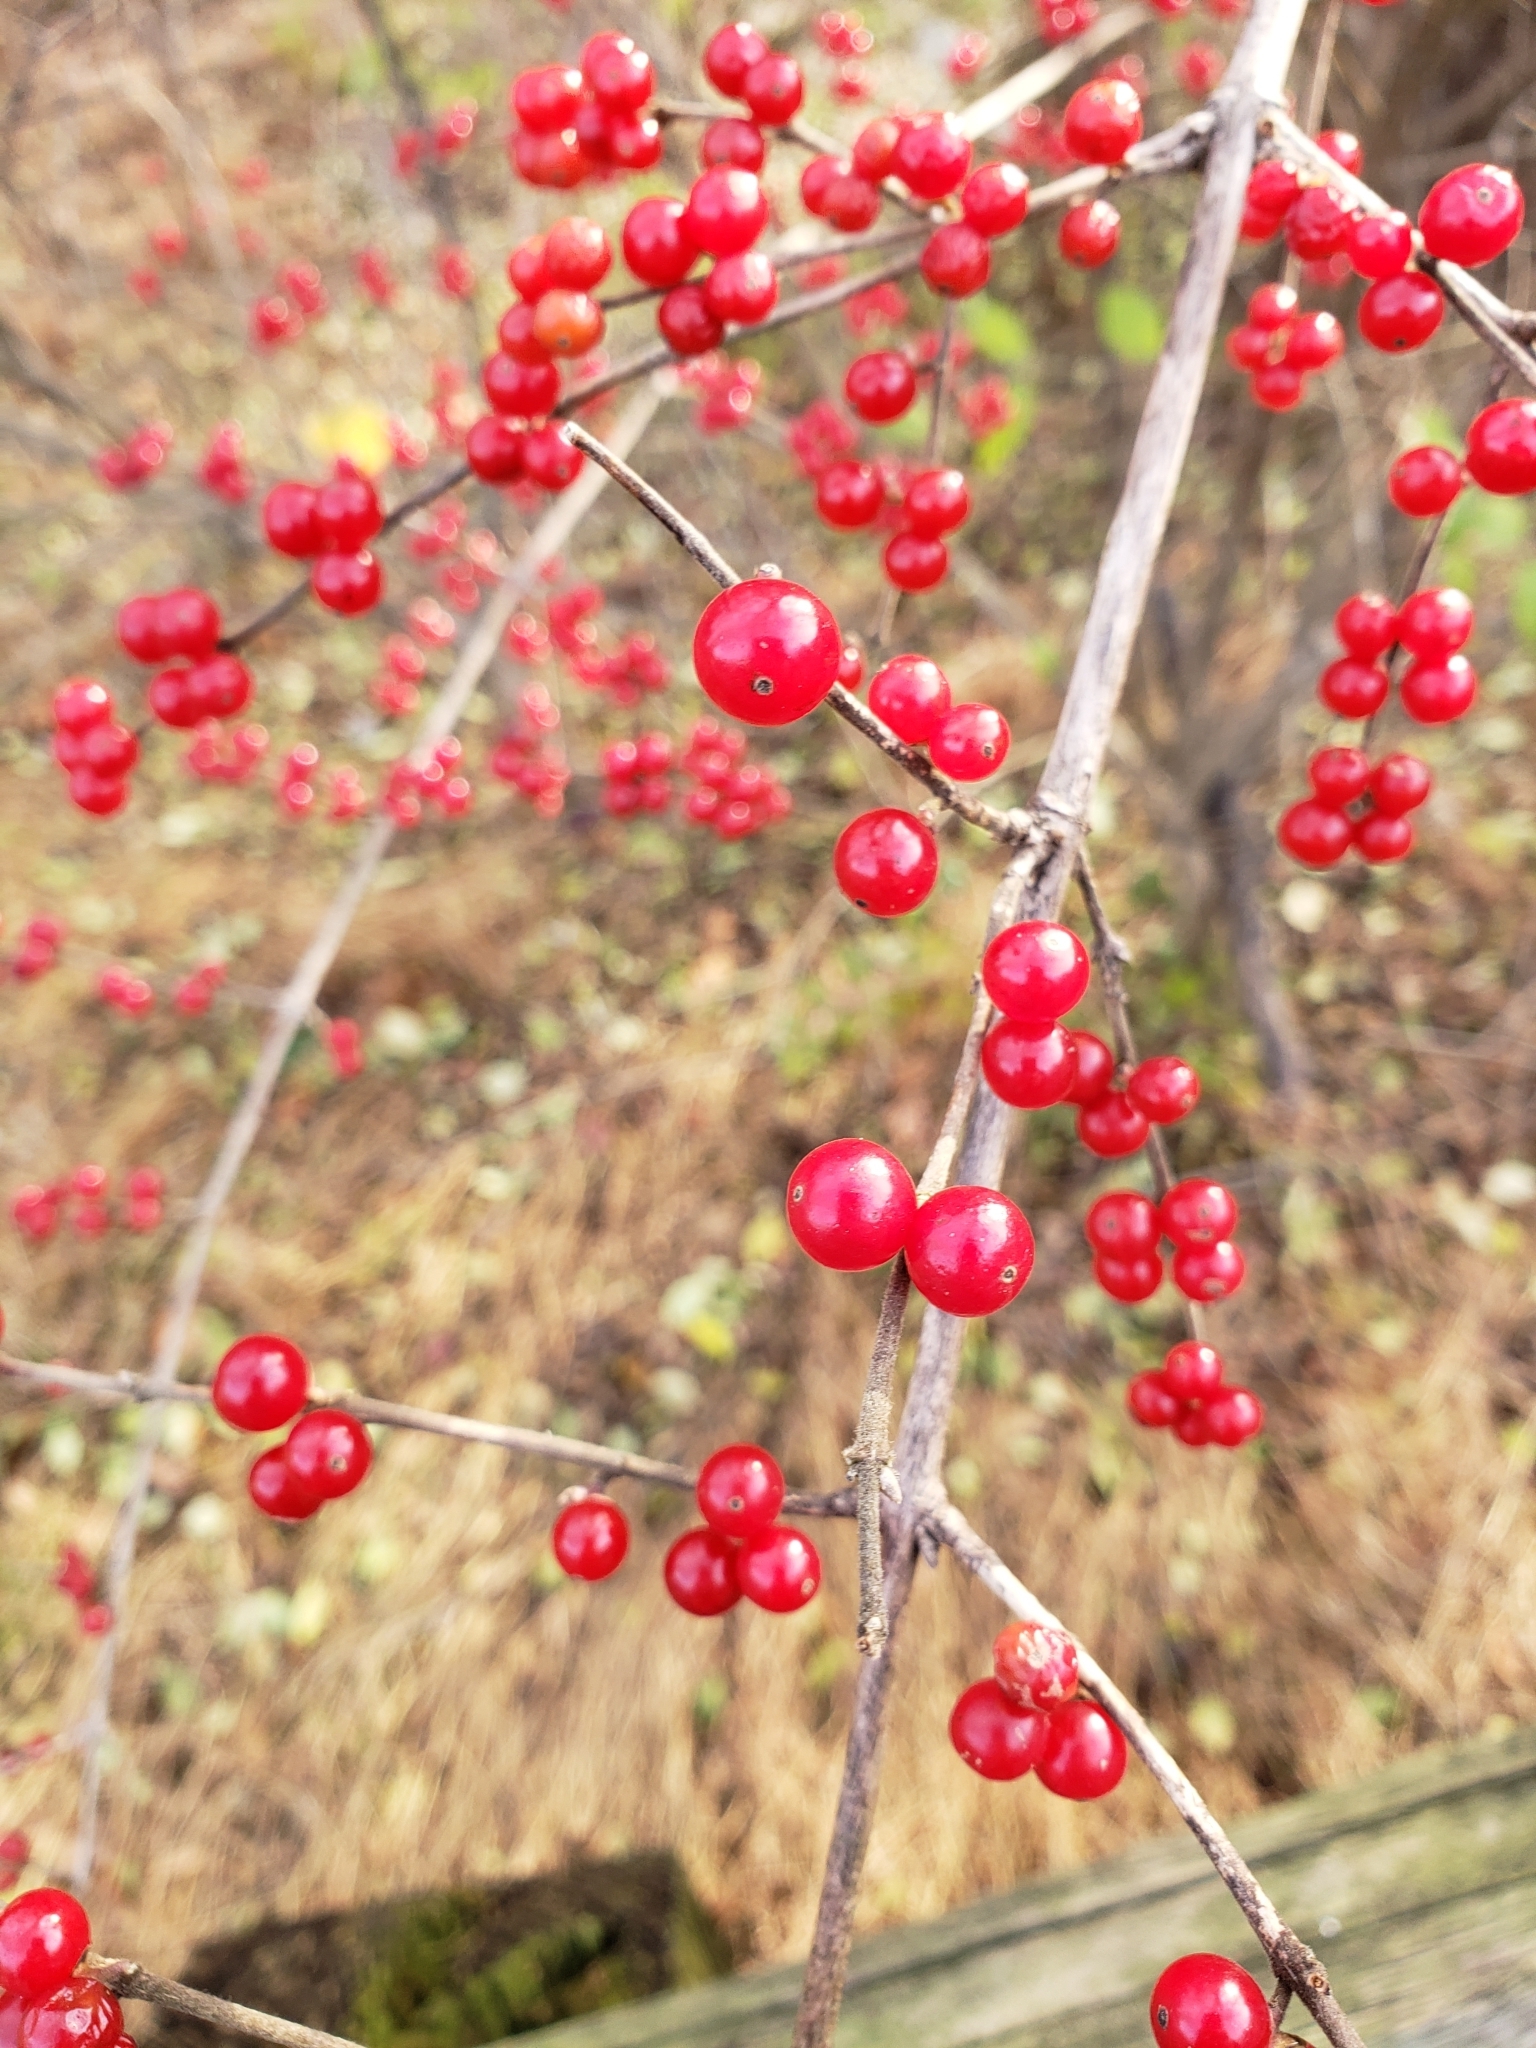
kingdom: Plantae
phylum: Tracheophyta
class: Magnoliopsida
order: Dipsacales
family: Caprifoliaceae
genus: Lonicera
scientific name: Lonicera maackii
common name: Amur honeysuckle
